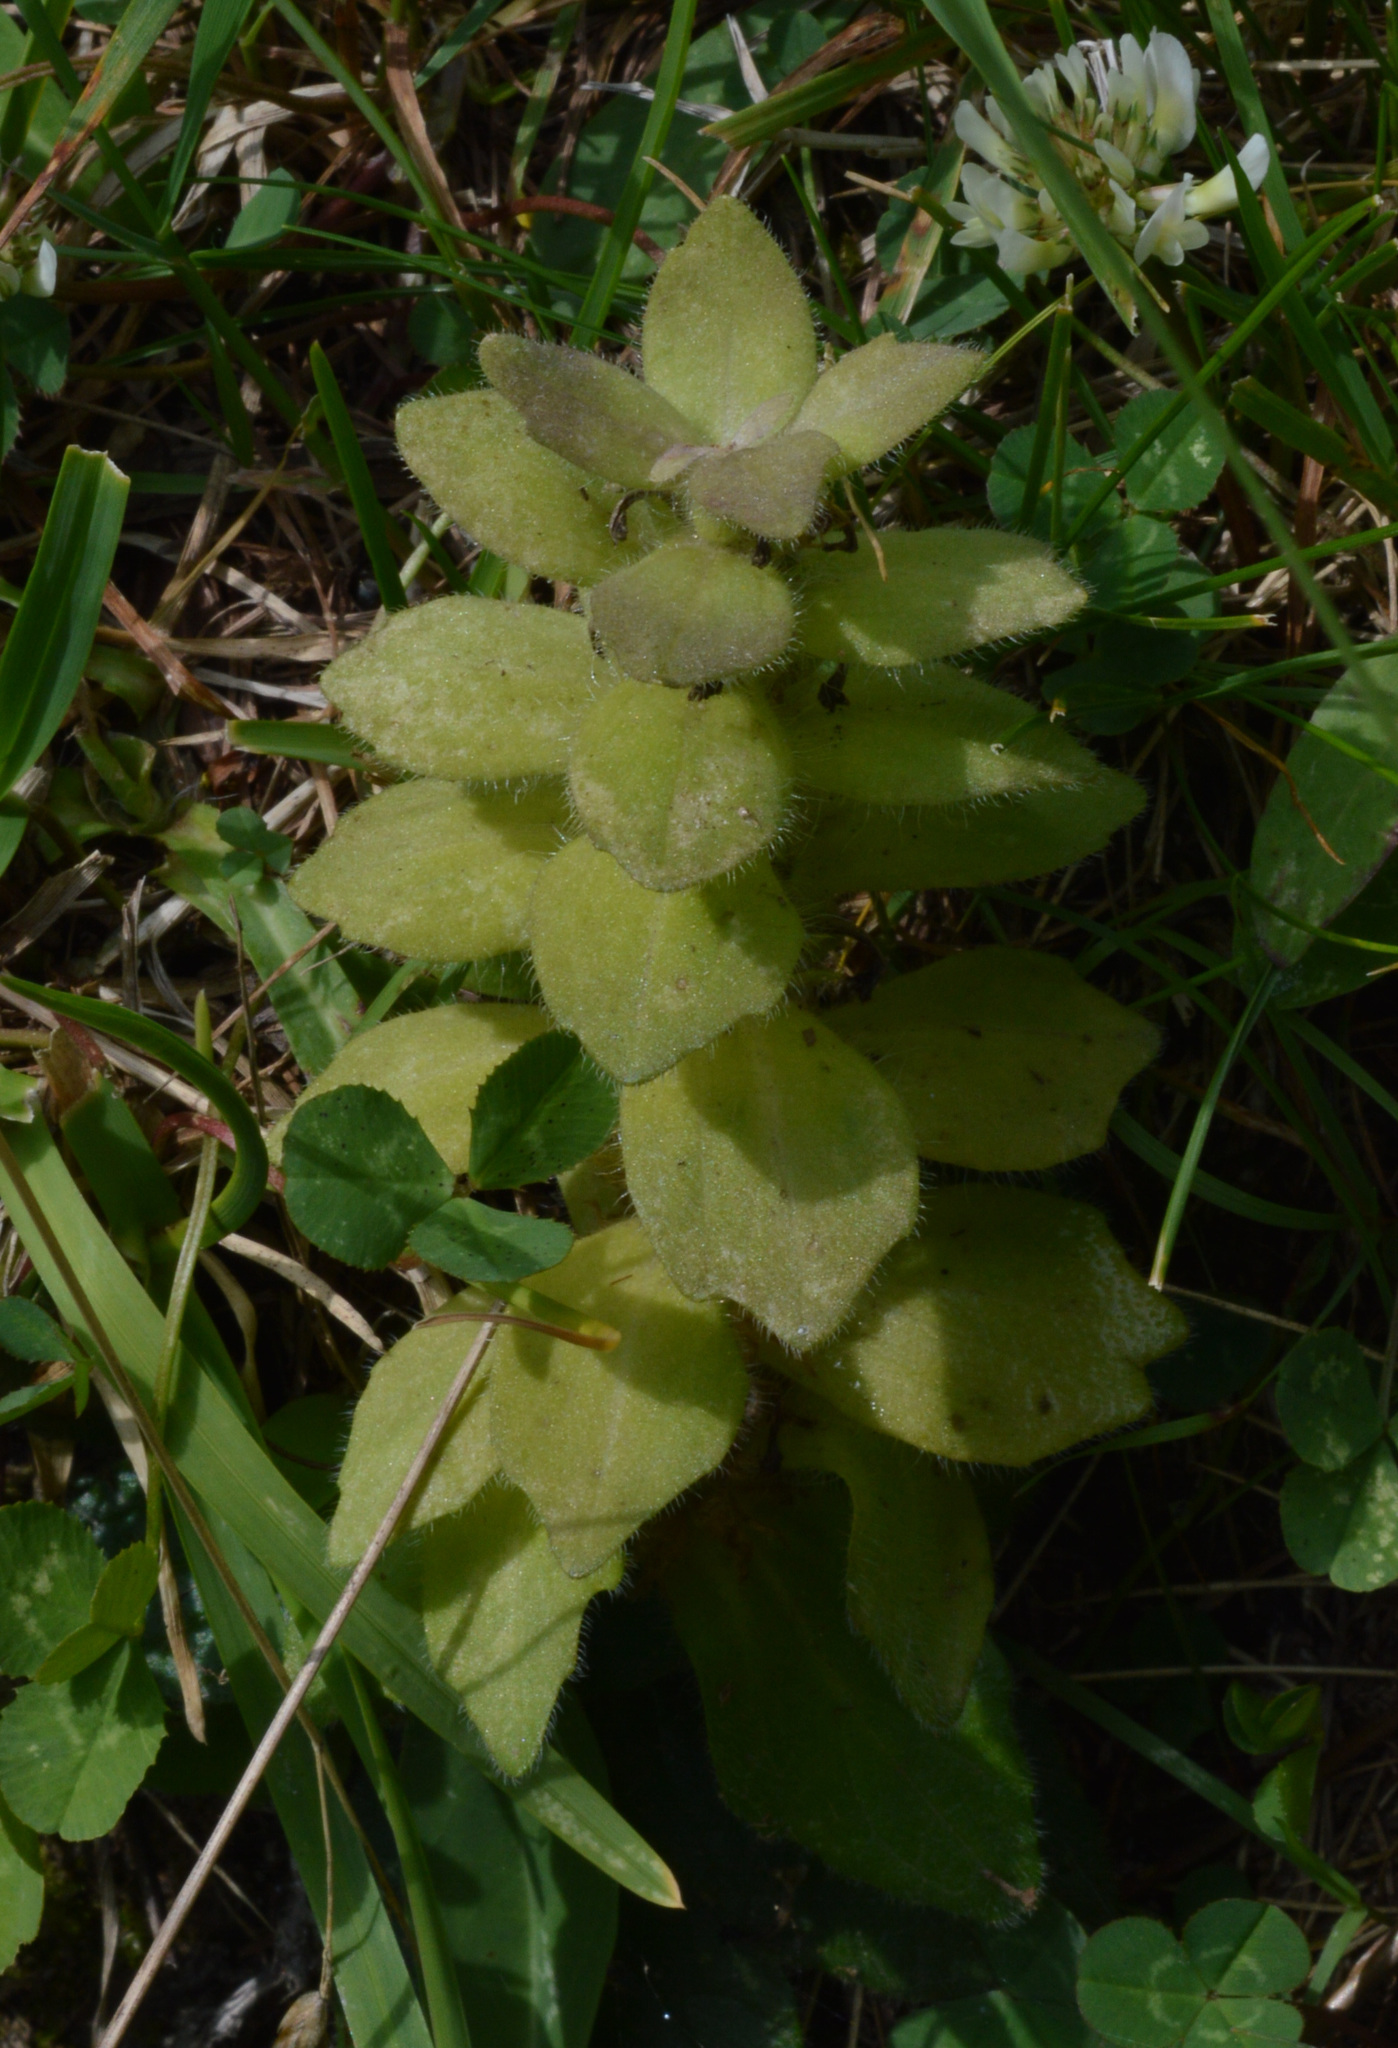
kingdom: Plantae
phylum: Tracheophyta
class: Magnoliopsida
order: Lamiales
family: Lamiaceae
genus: Ajuga
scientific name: Ajuga pyramidalis
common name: Pyramid bugle
